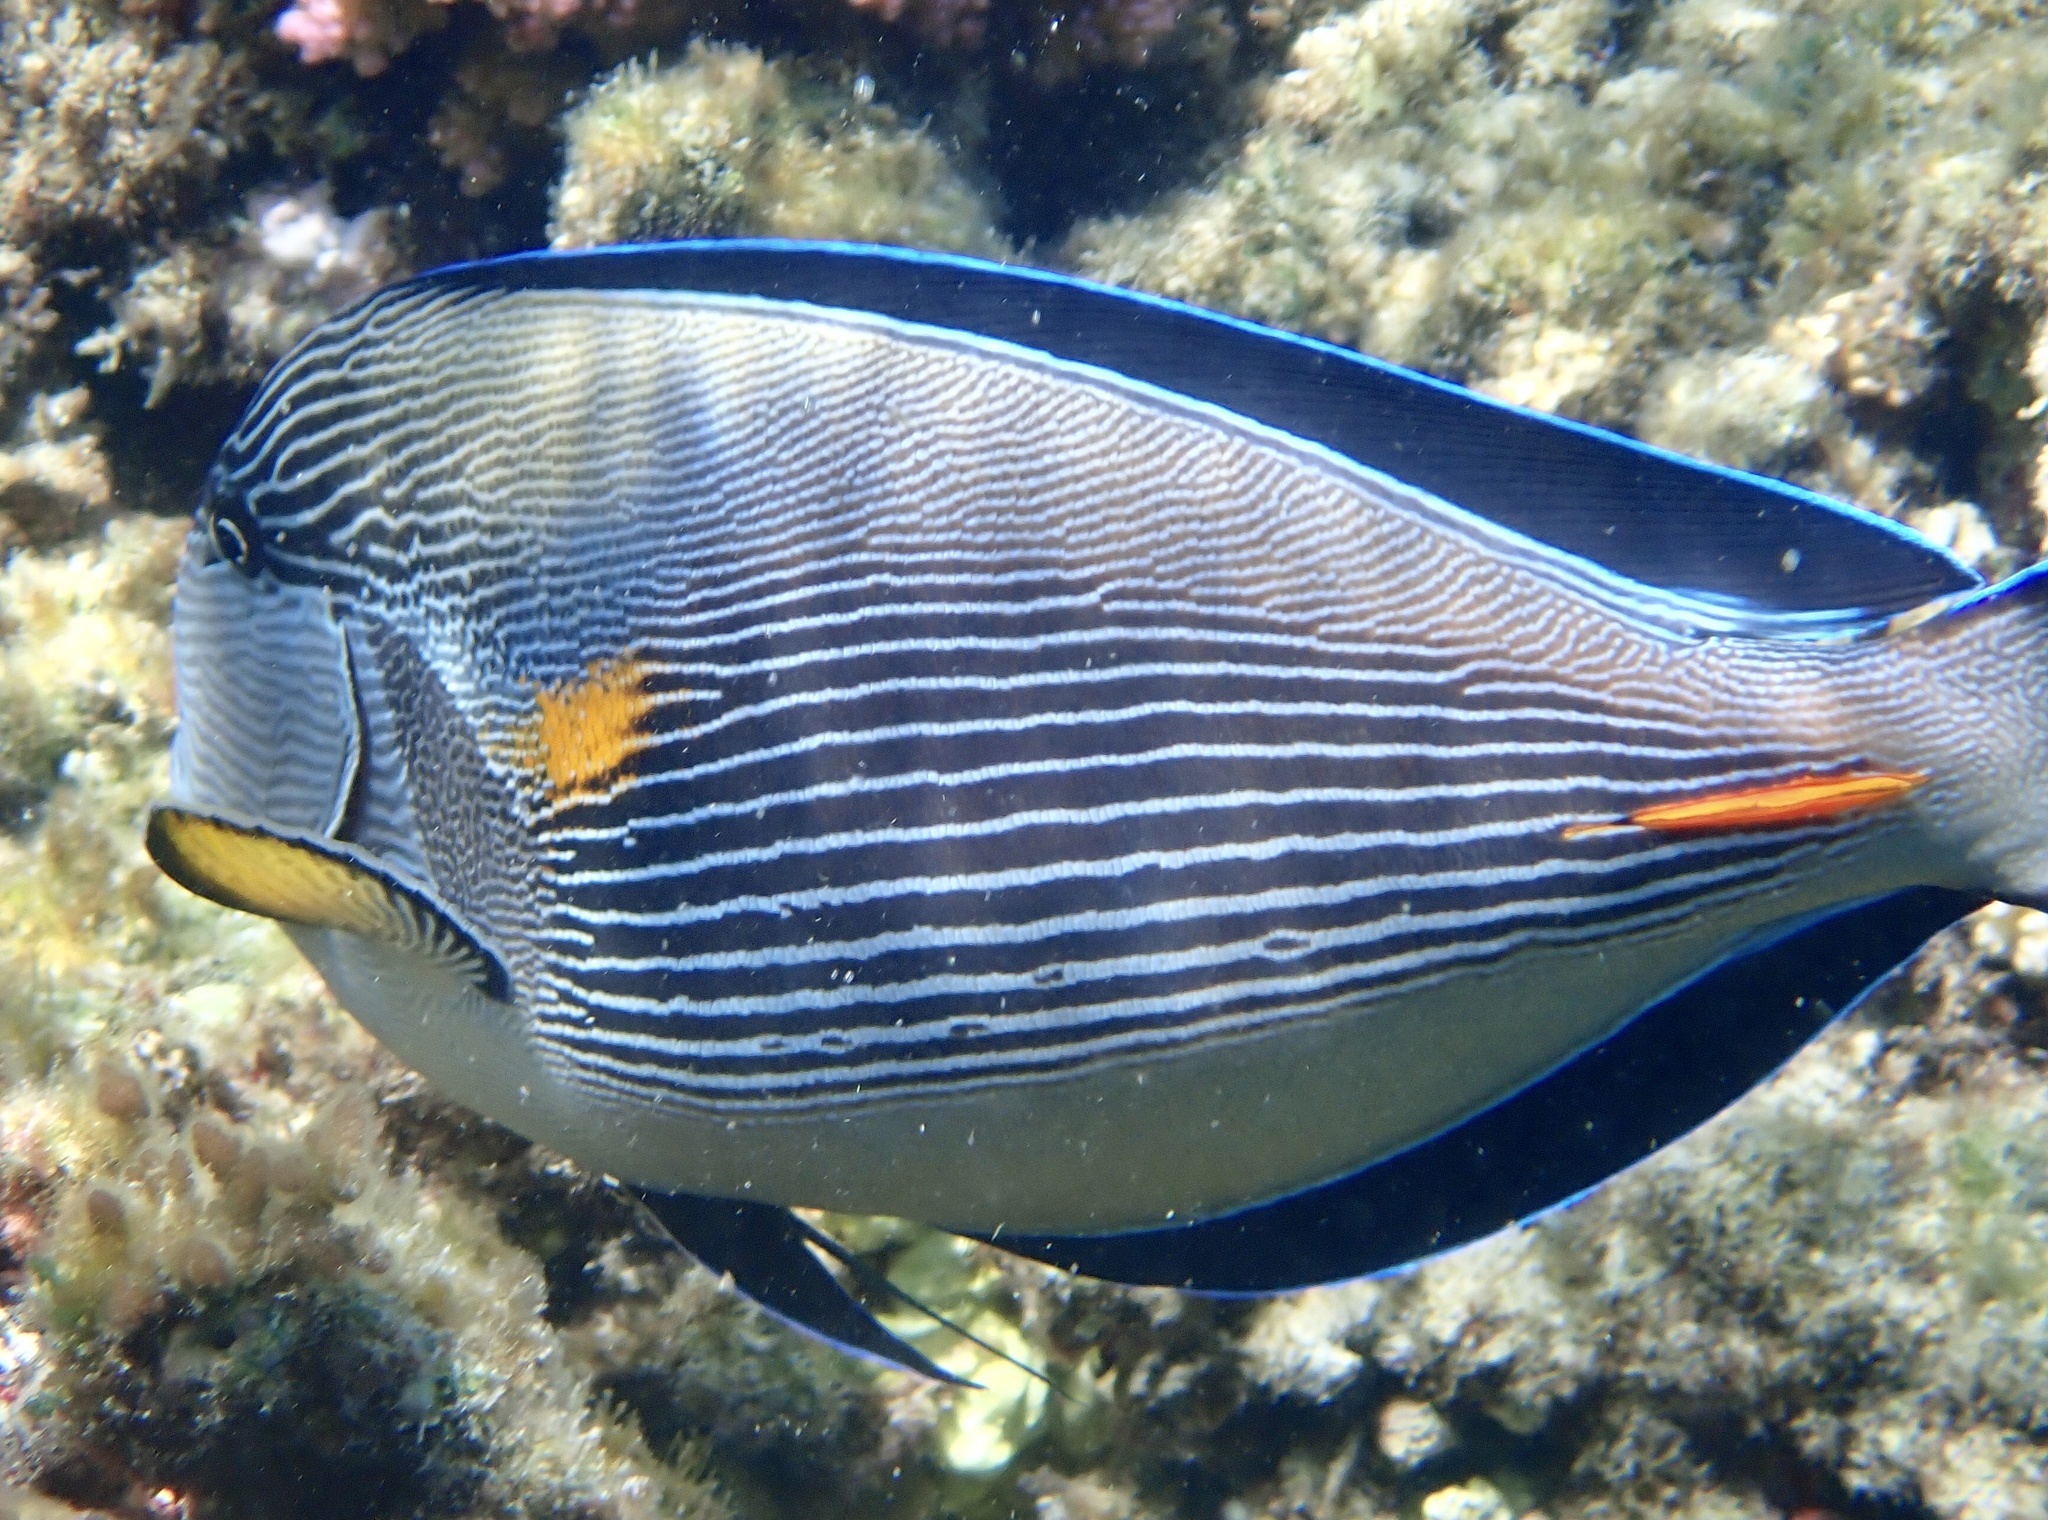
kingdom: Animalia
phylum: Chordata
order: Perciformes
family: Acanthuridae
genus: Acanthurus
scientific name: Acanthurus sohal
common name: Red sea surgeonfish
